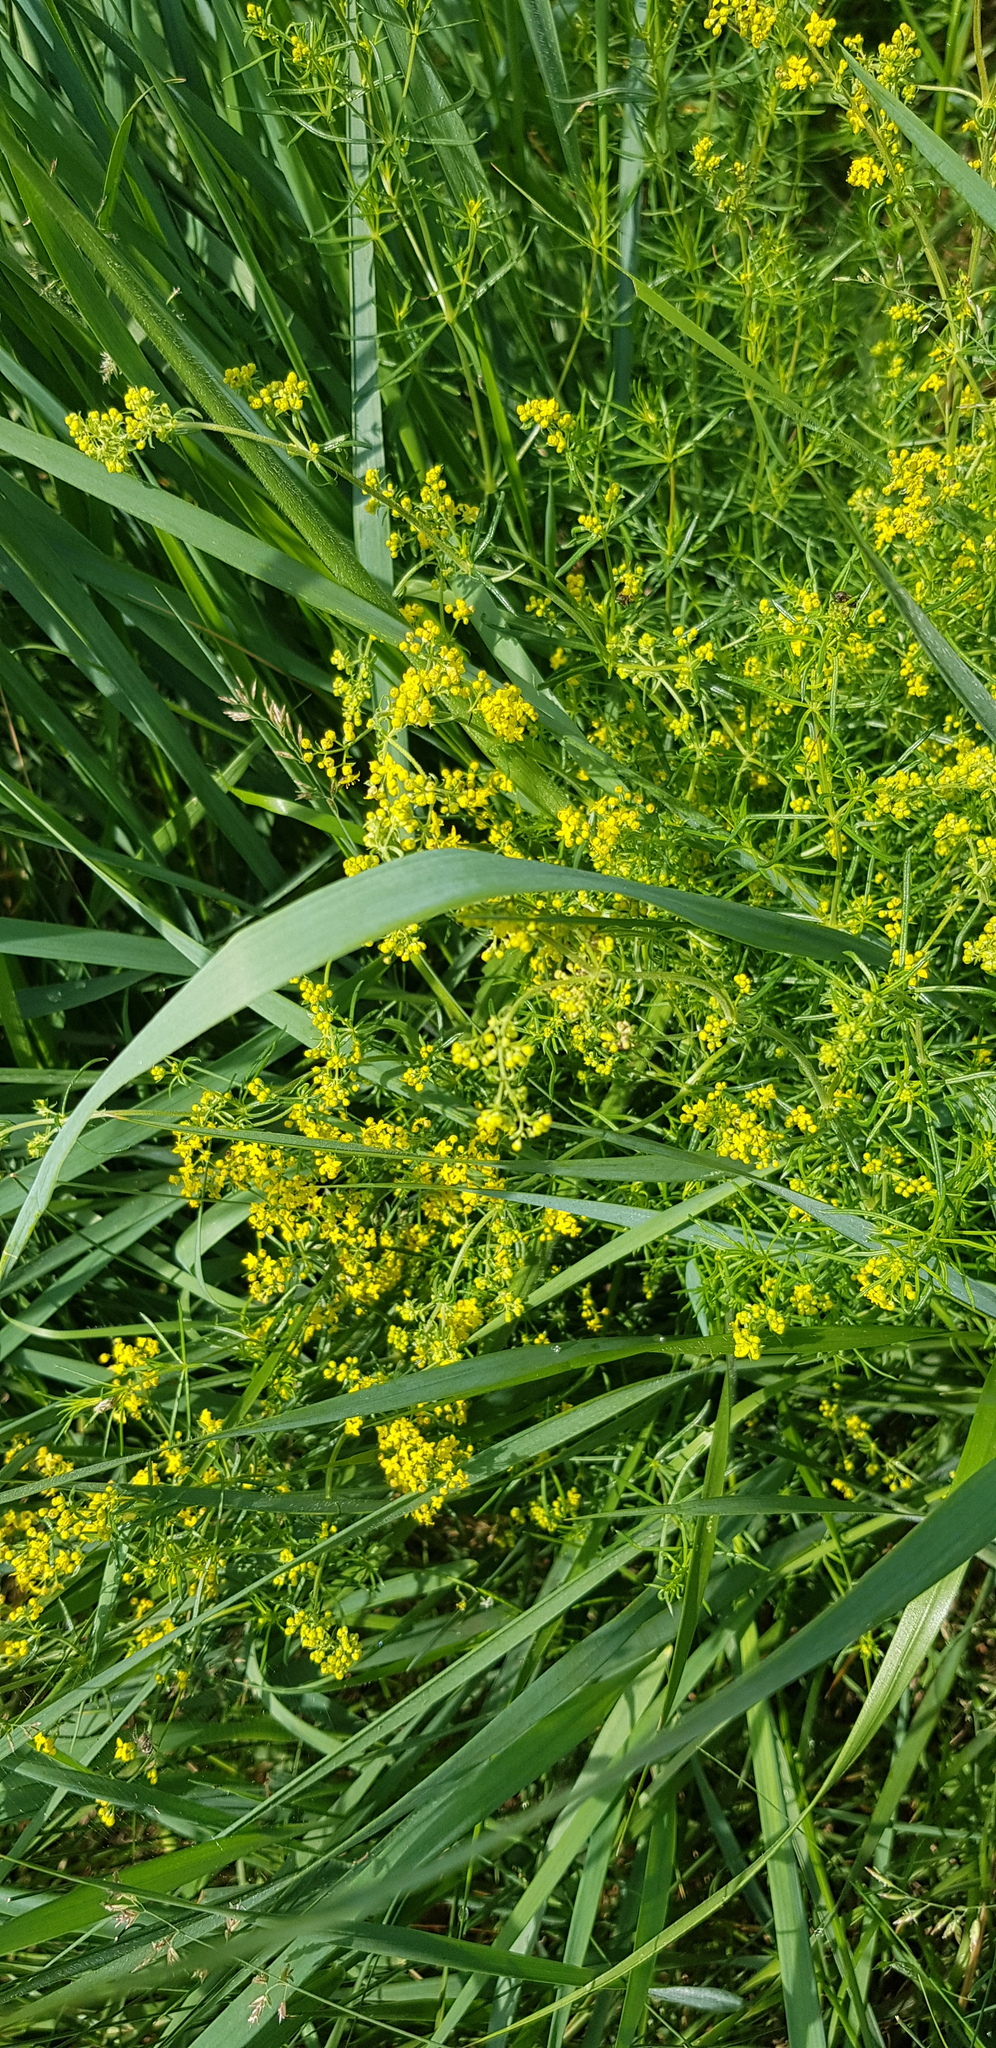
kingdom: Plantae
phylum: Tracheophyta
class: Magnoliopsida
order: Gentianales
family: Rubiaceae
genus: Galium
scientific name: Galium verum
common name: Lady's bedstraw
